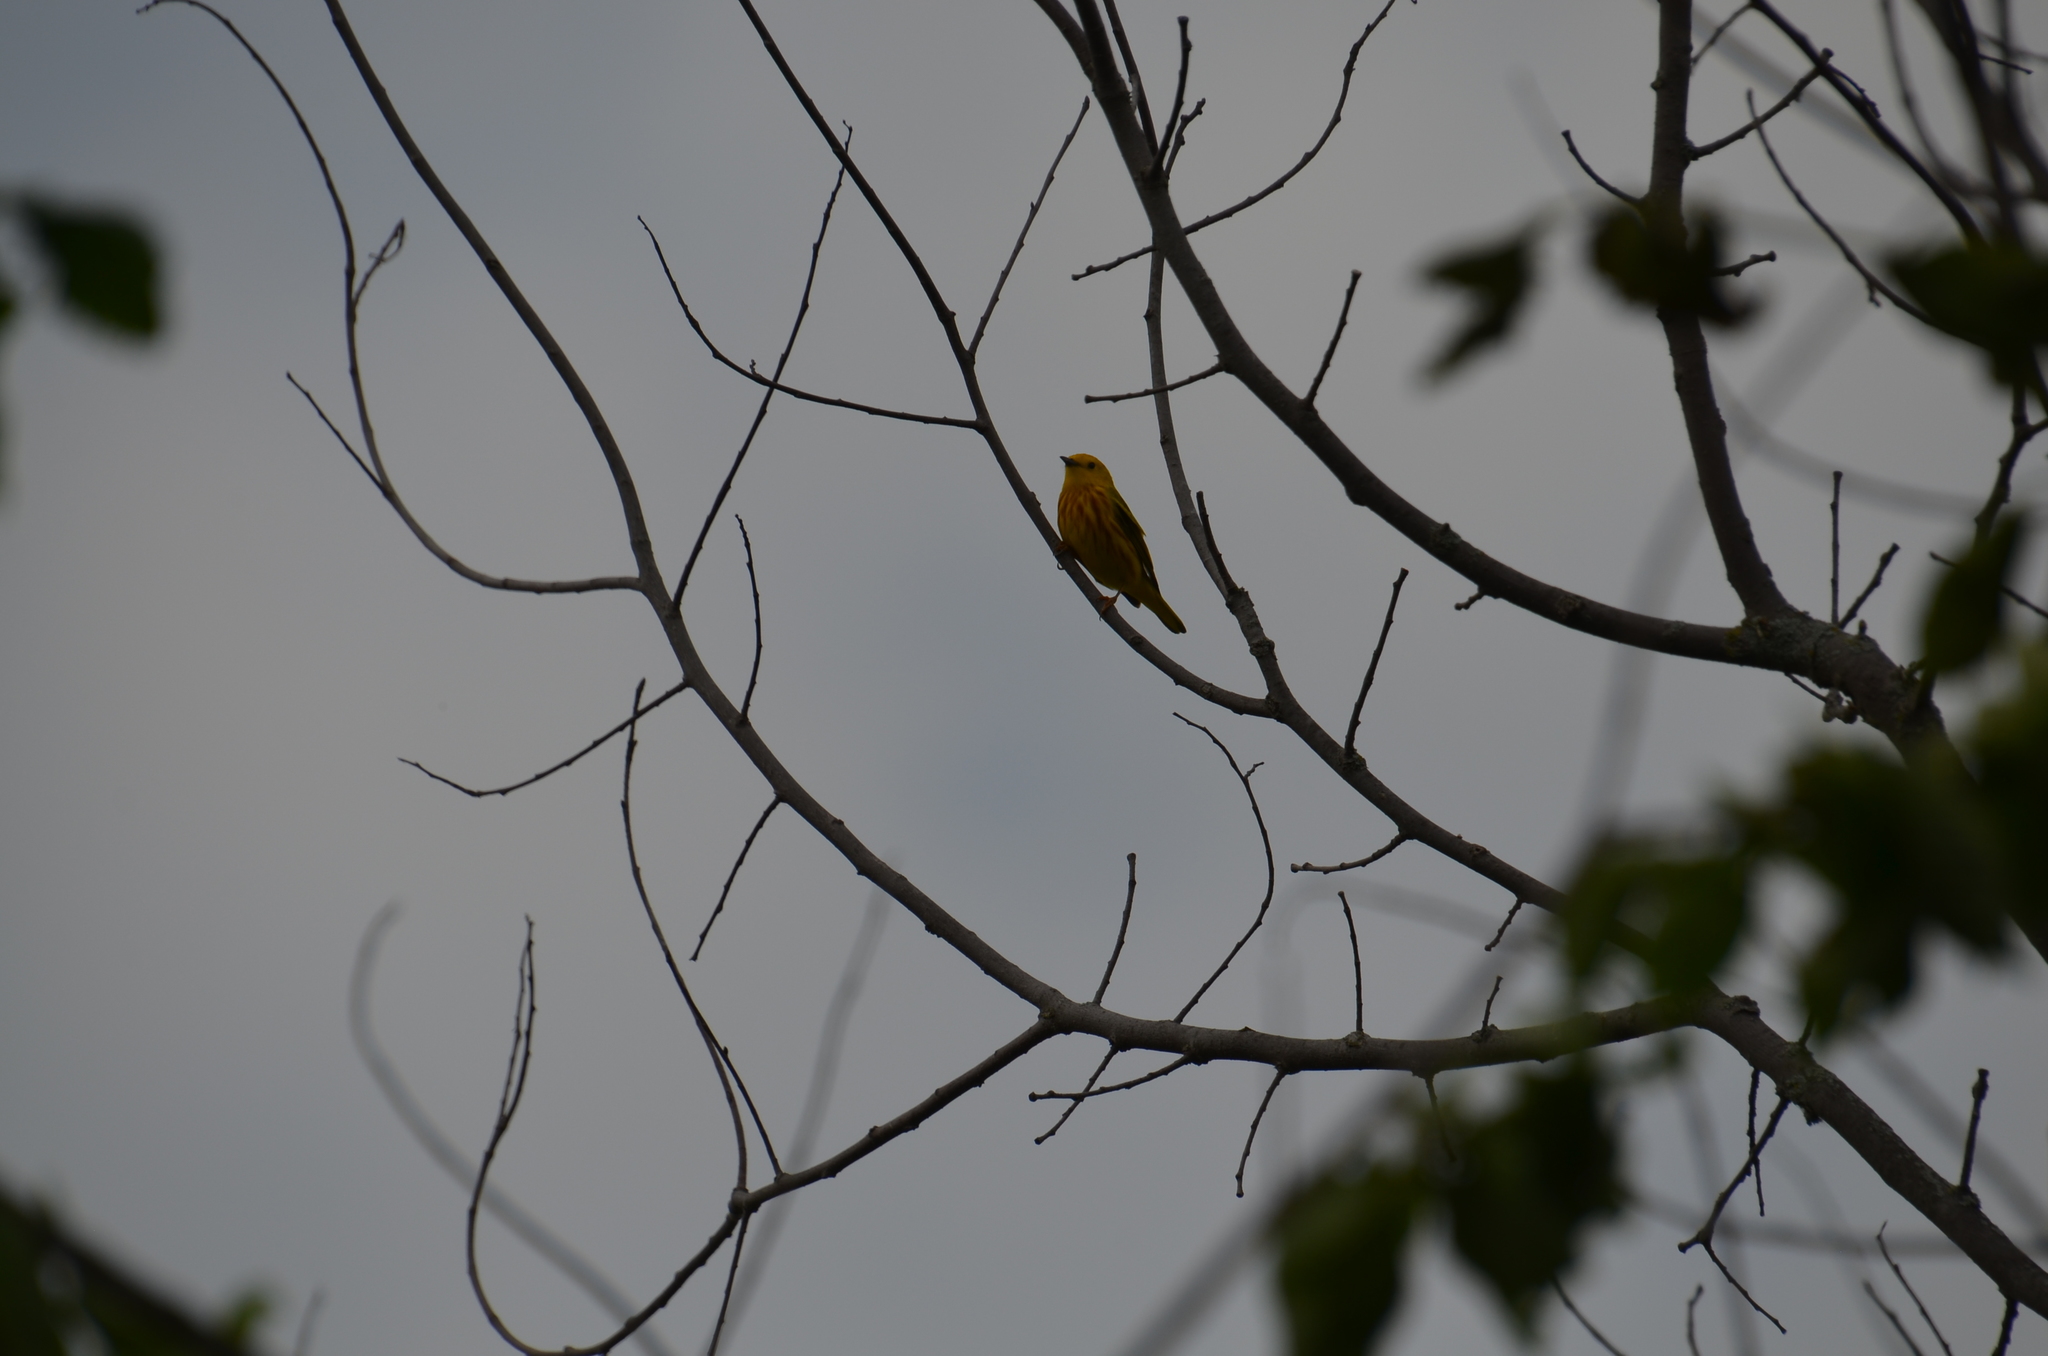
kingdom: Animalia
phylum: Chordata
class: Aves
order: Passeriformes
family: Parulidae
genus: Setophaga
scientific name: Setophaga petechia
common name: Yellow warbler
